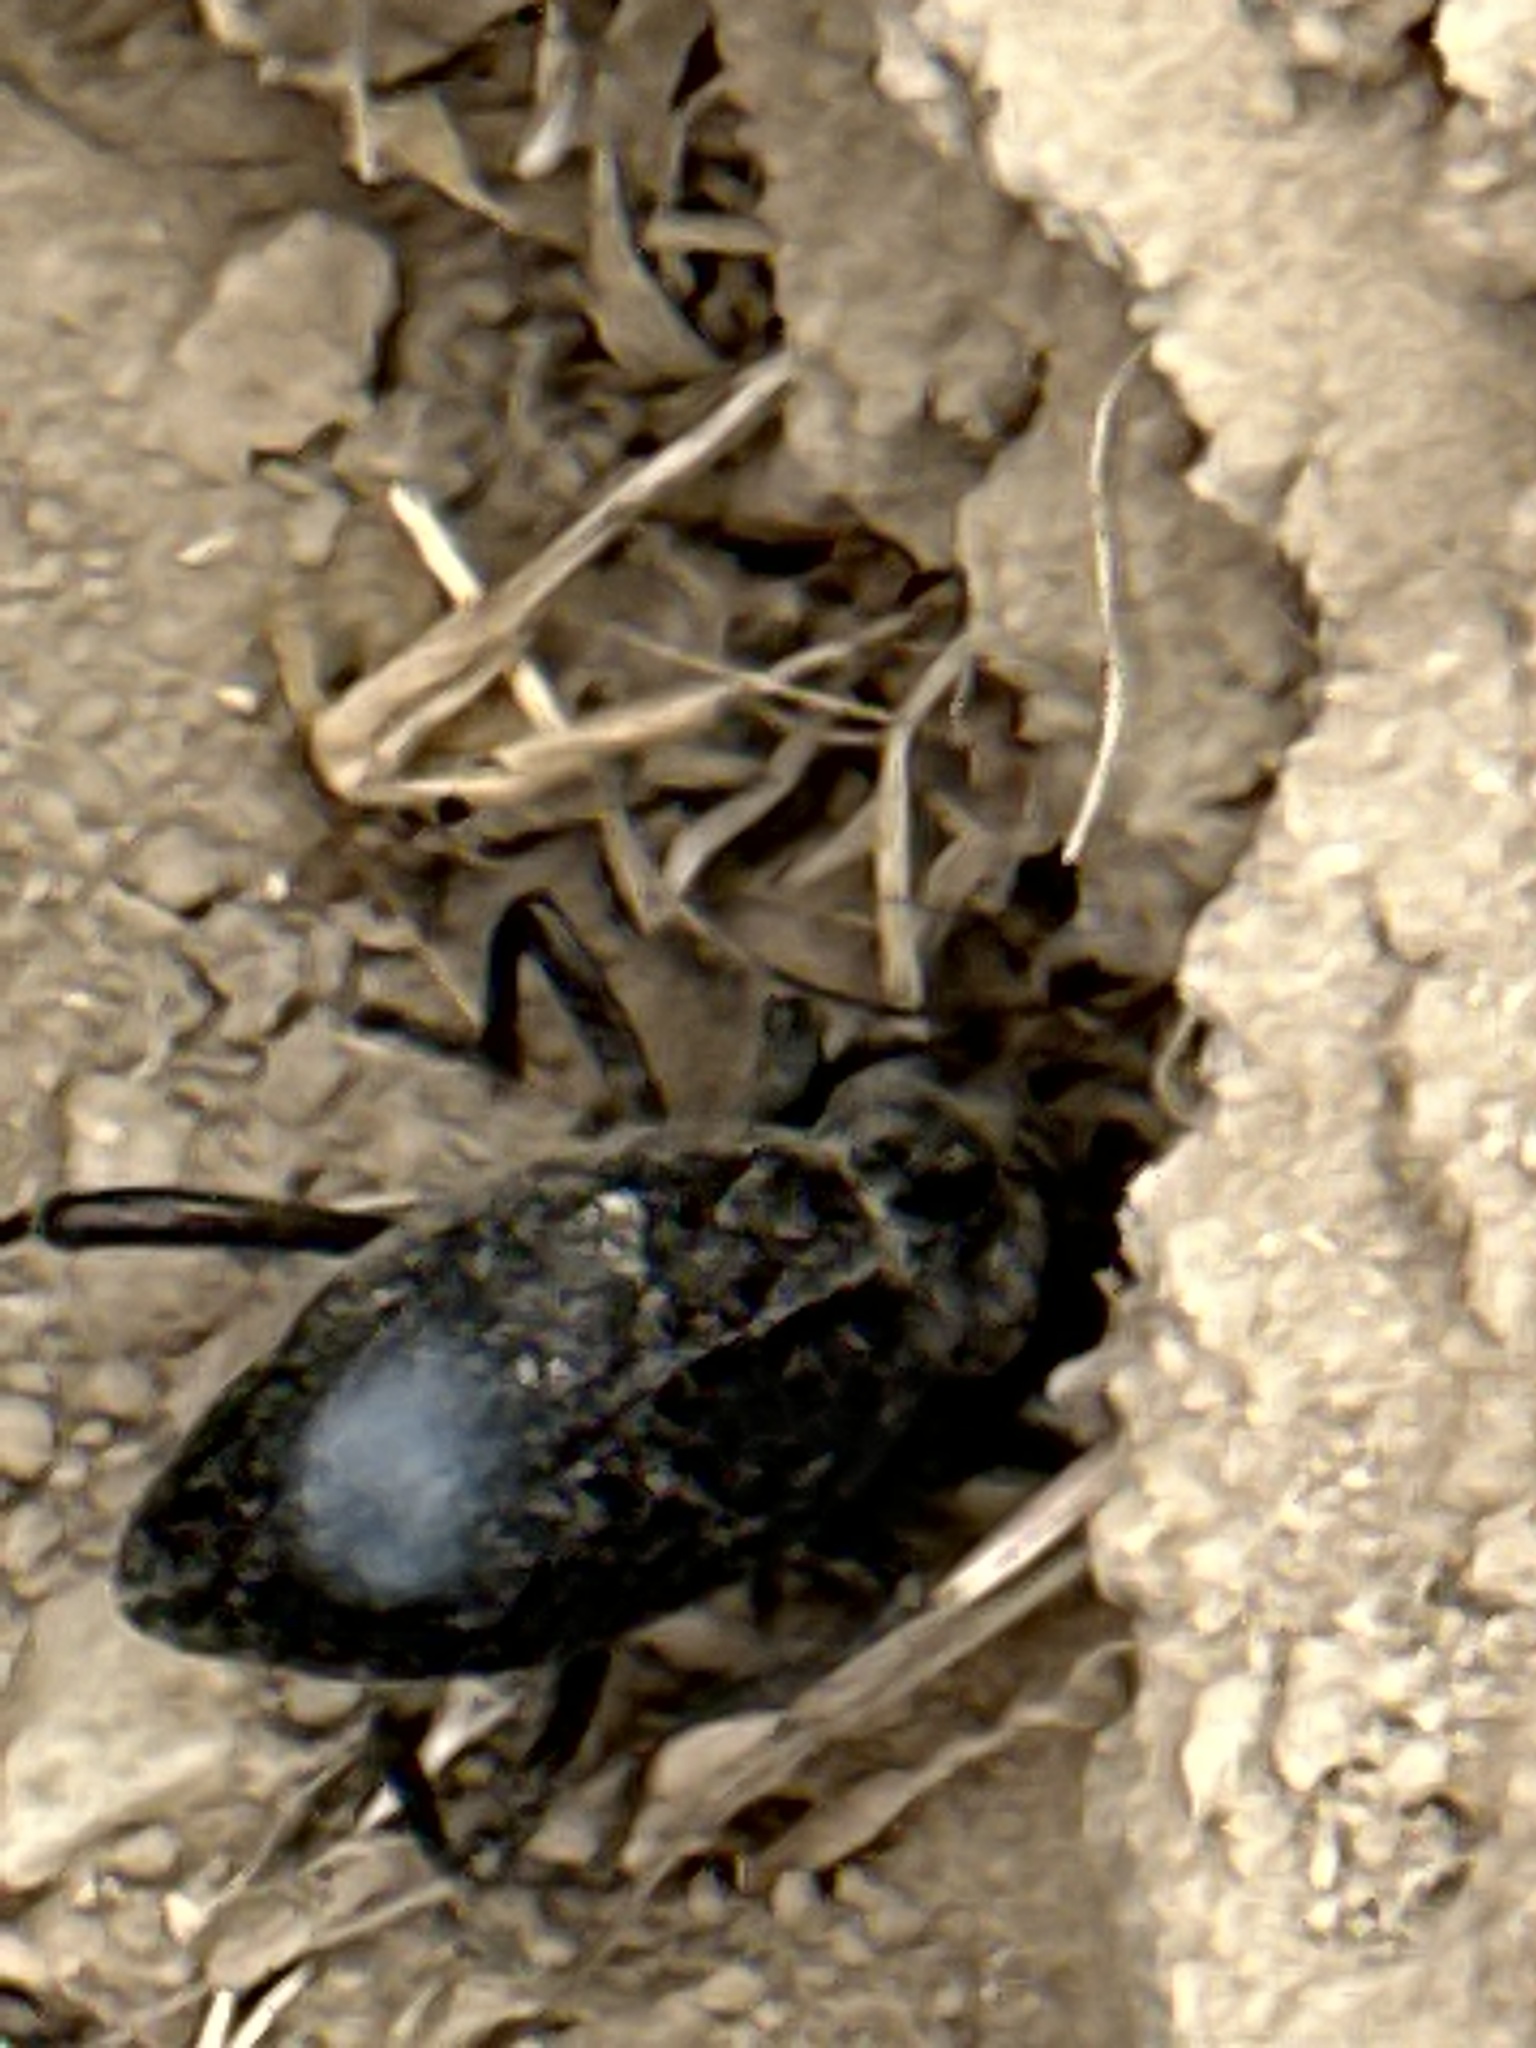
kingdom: Animalia
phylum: Arthropoda
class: Insecta
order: Coleoptera
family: Tenebrionidae
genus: Eleodes
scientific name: Eleodes armata
